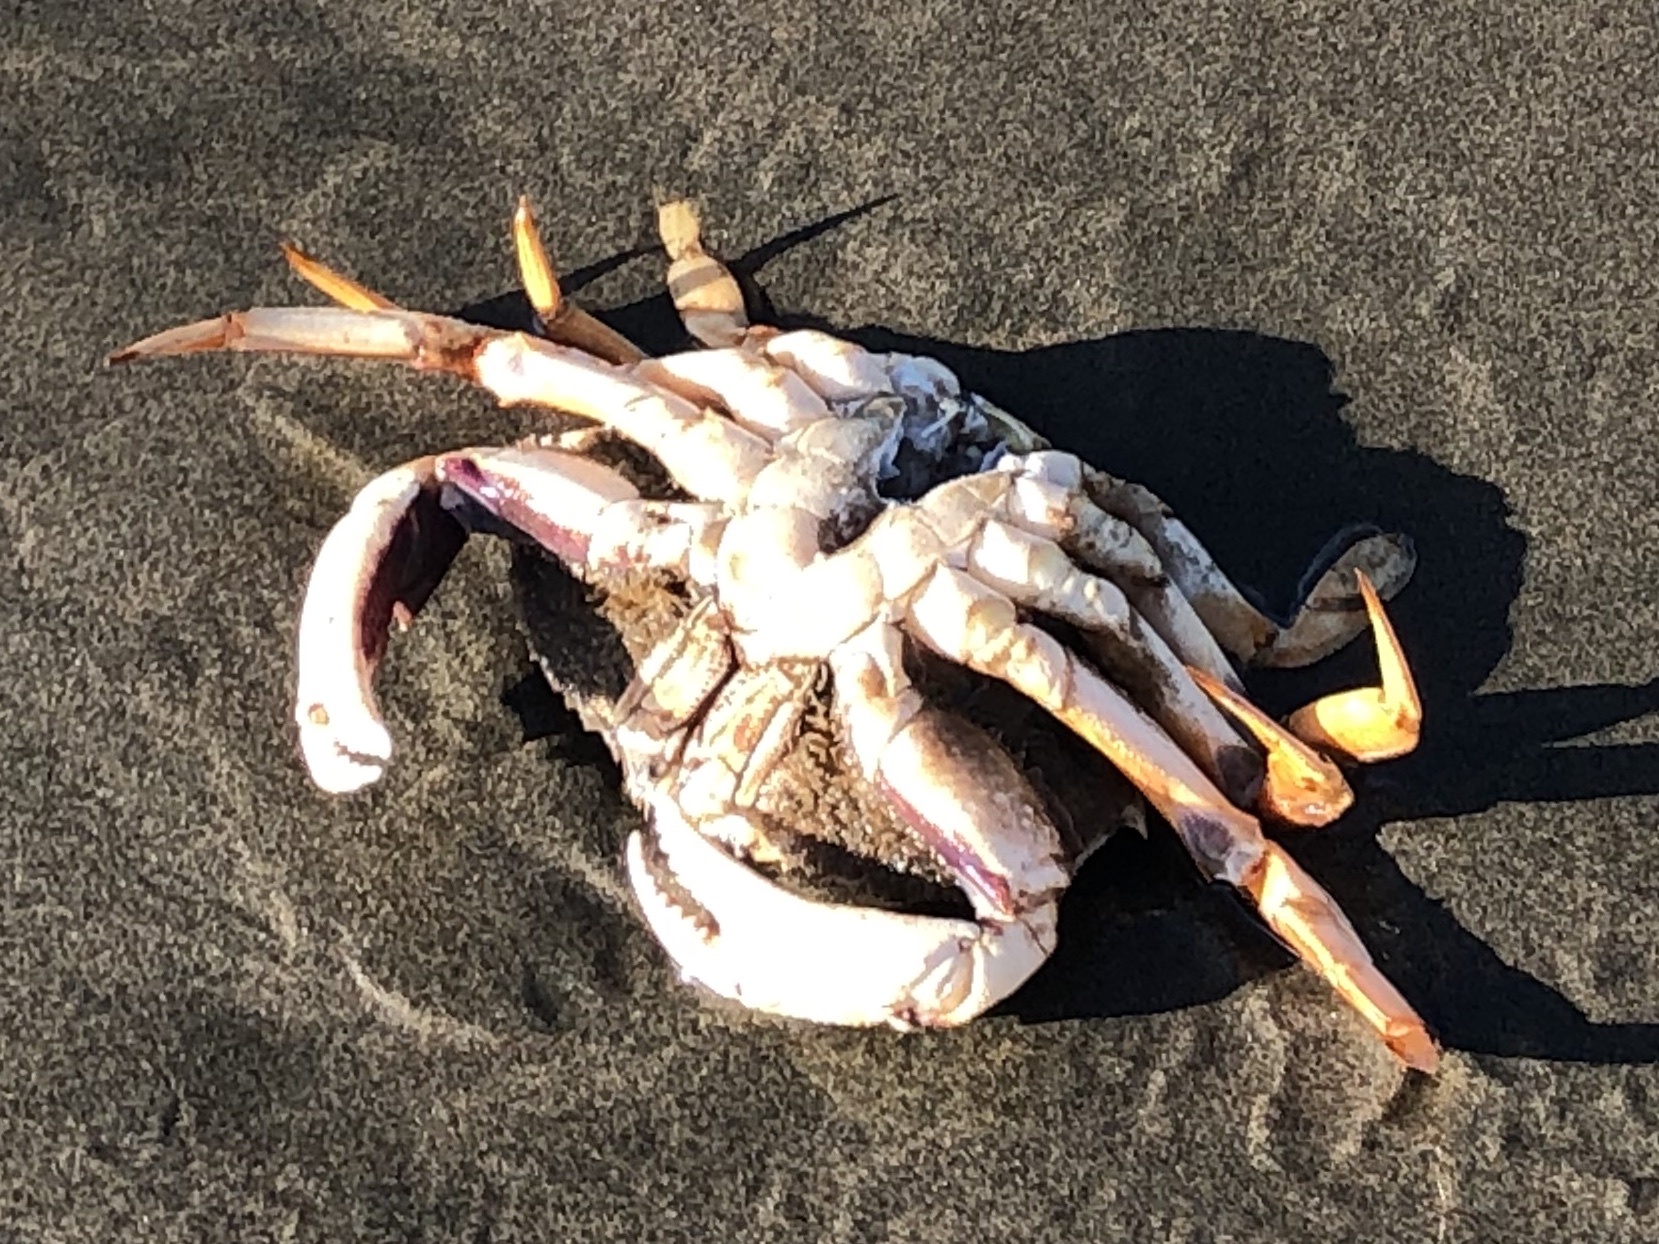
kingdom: Animalia
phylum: Arthropoda
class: Malacostraca
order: Decapoda
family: Cancridae
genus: Metacarcinus
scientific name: Metacarcinus magister
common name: Californian crab
